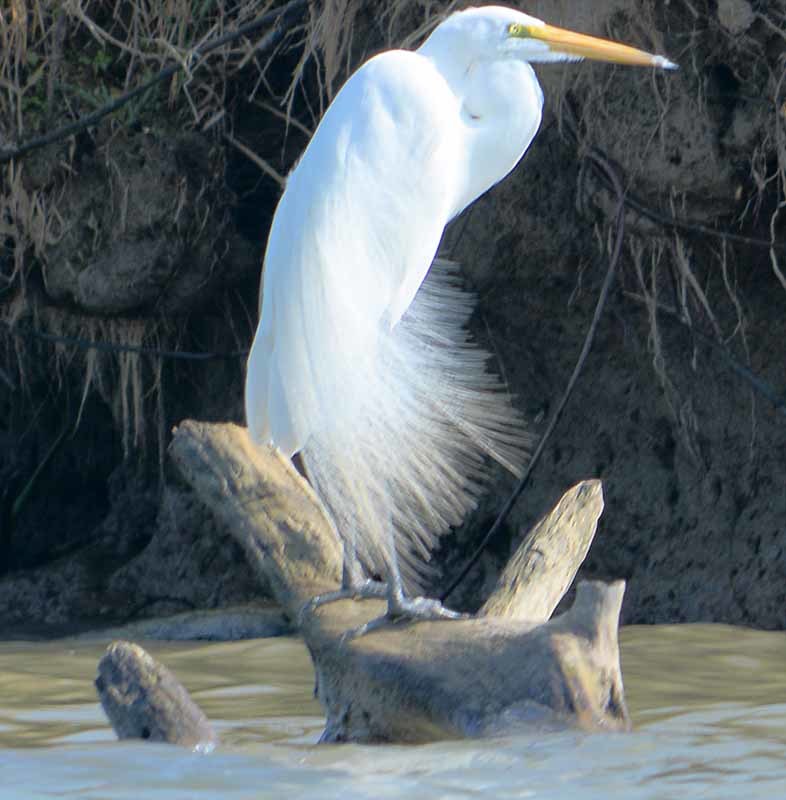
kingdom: Animalia
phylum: Chordata
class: Aves
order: Pelecaniformes
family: Ardeidae
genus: Ardea
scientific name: Ardea alba
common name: Great egret
